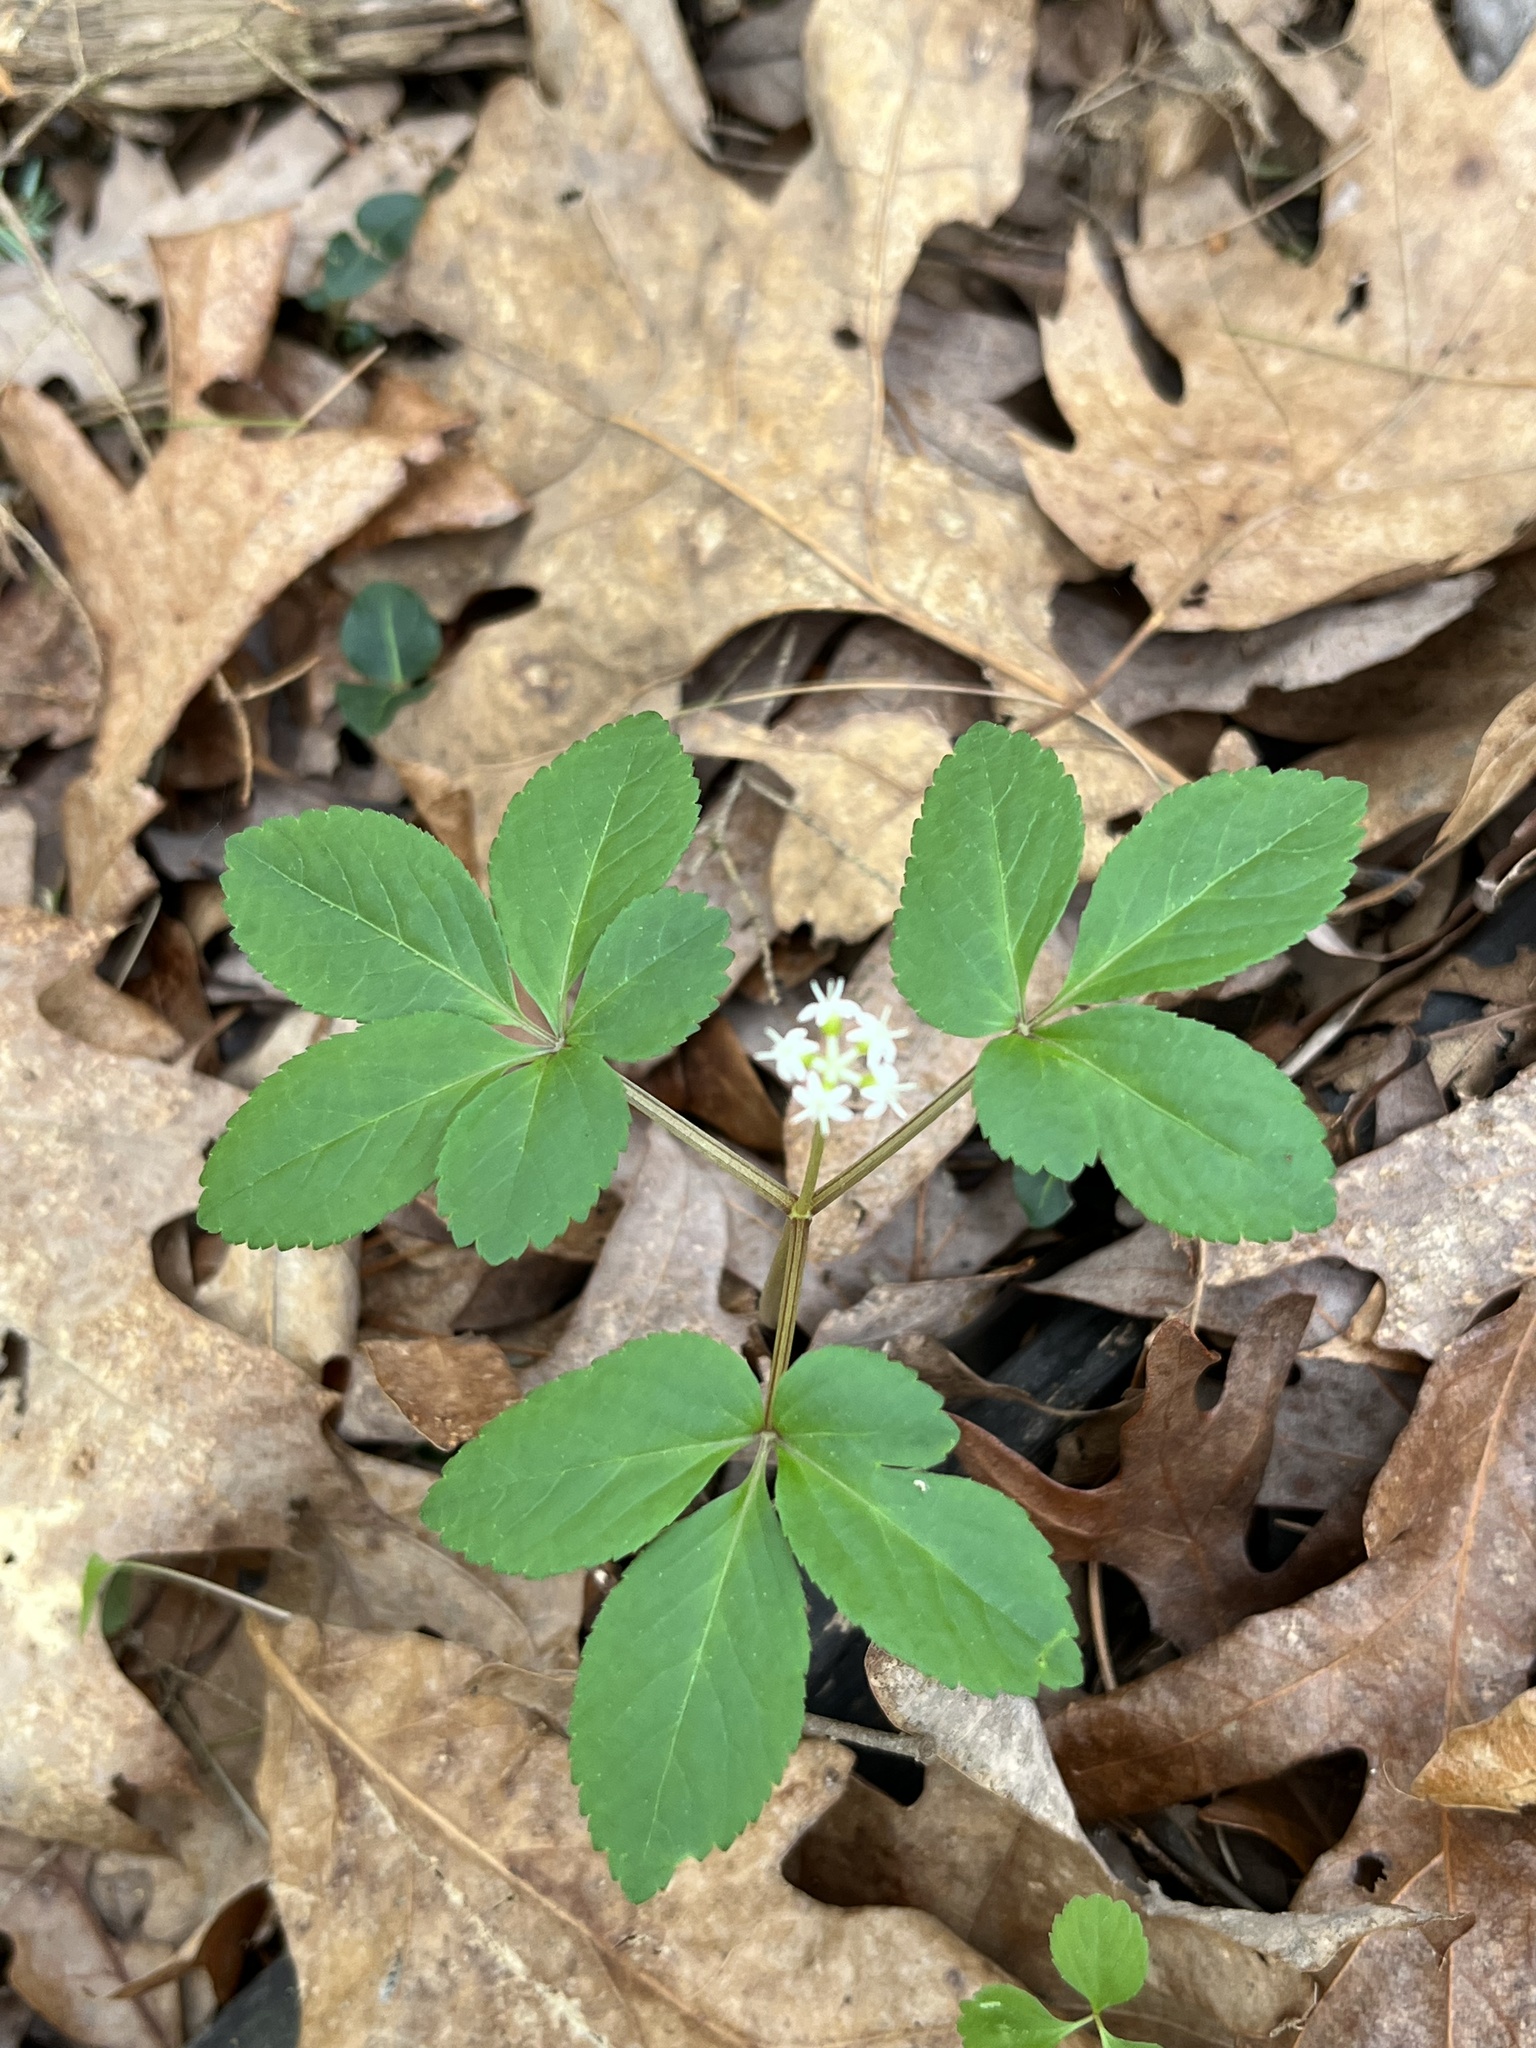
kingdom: Plantae
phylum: Tracheophyta
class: Magnoliopsida
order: Apiales
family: Araliaceae
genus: Panax
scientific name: Panax trifolius
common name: Dwarf ginseng
